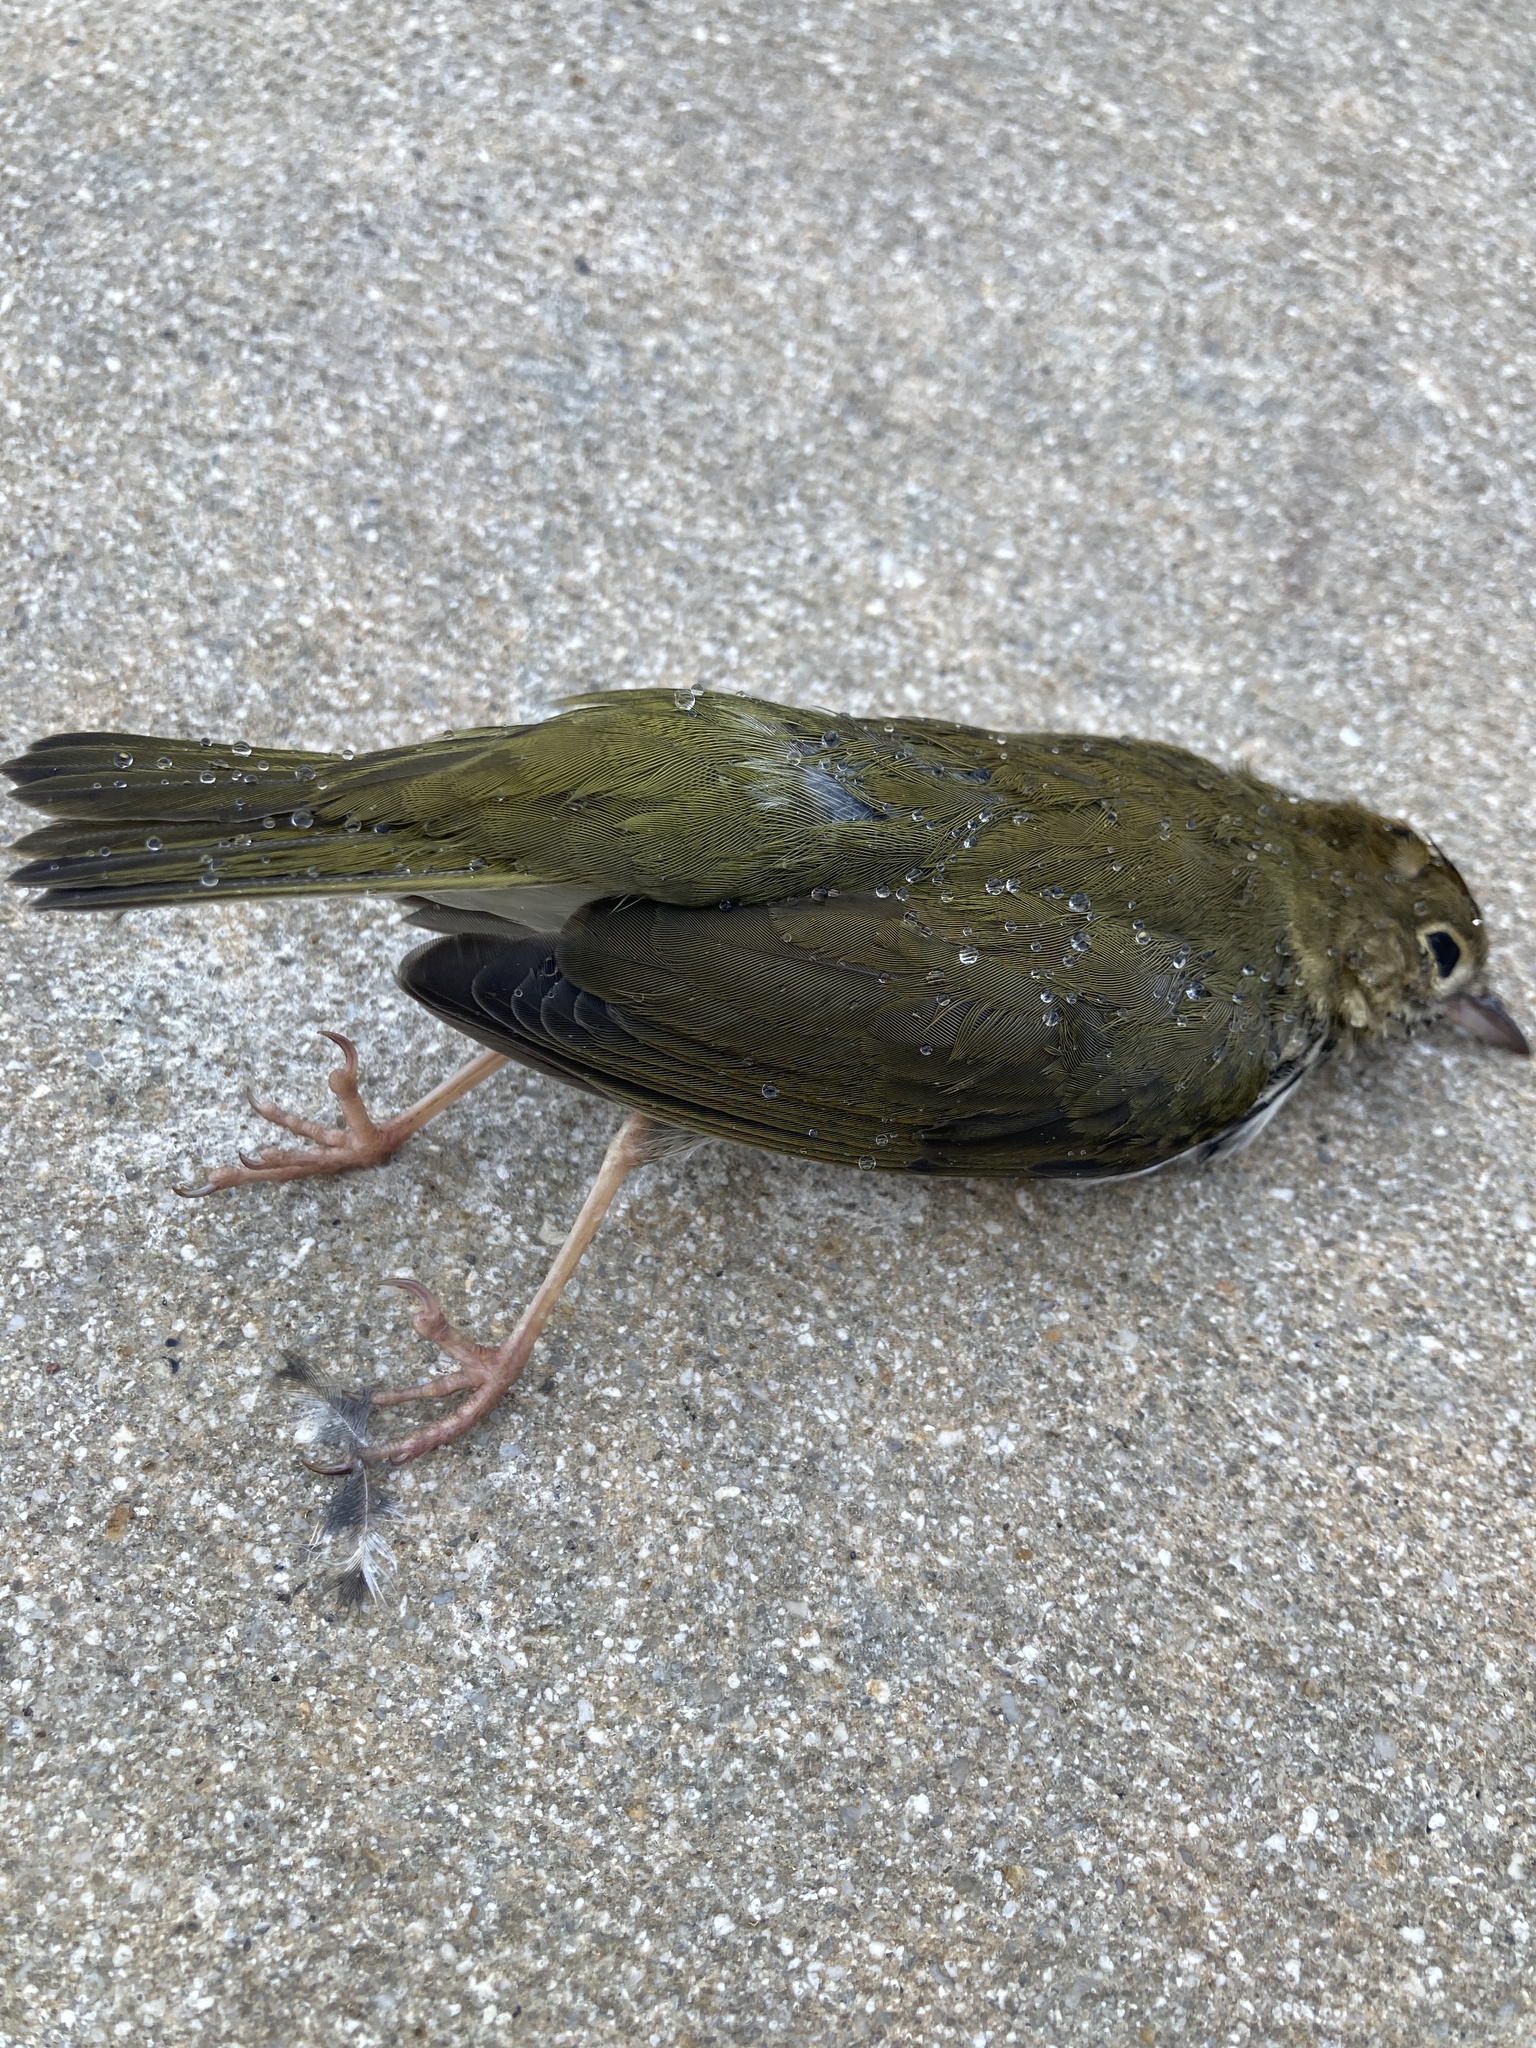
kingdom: Animalia
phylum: Chordata
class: Aves
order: Passeriformes
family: Parulidae
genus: Seiurus
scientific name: Seiurus aurocapilla
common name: Ovenbird
